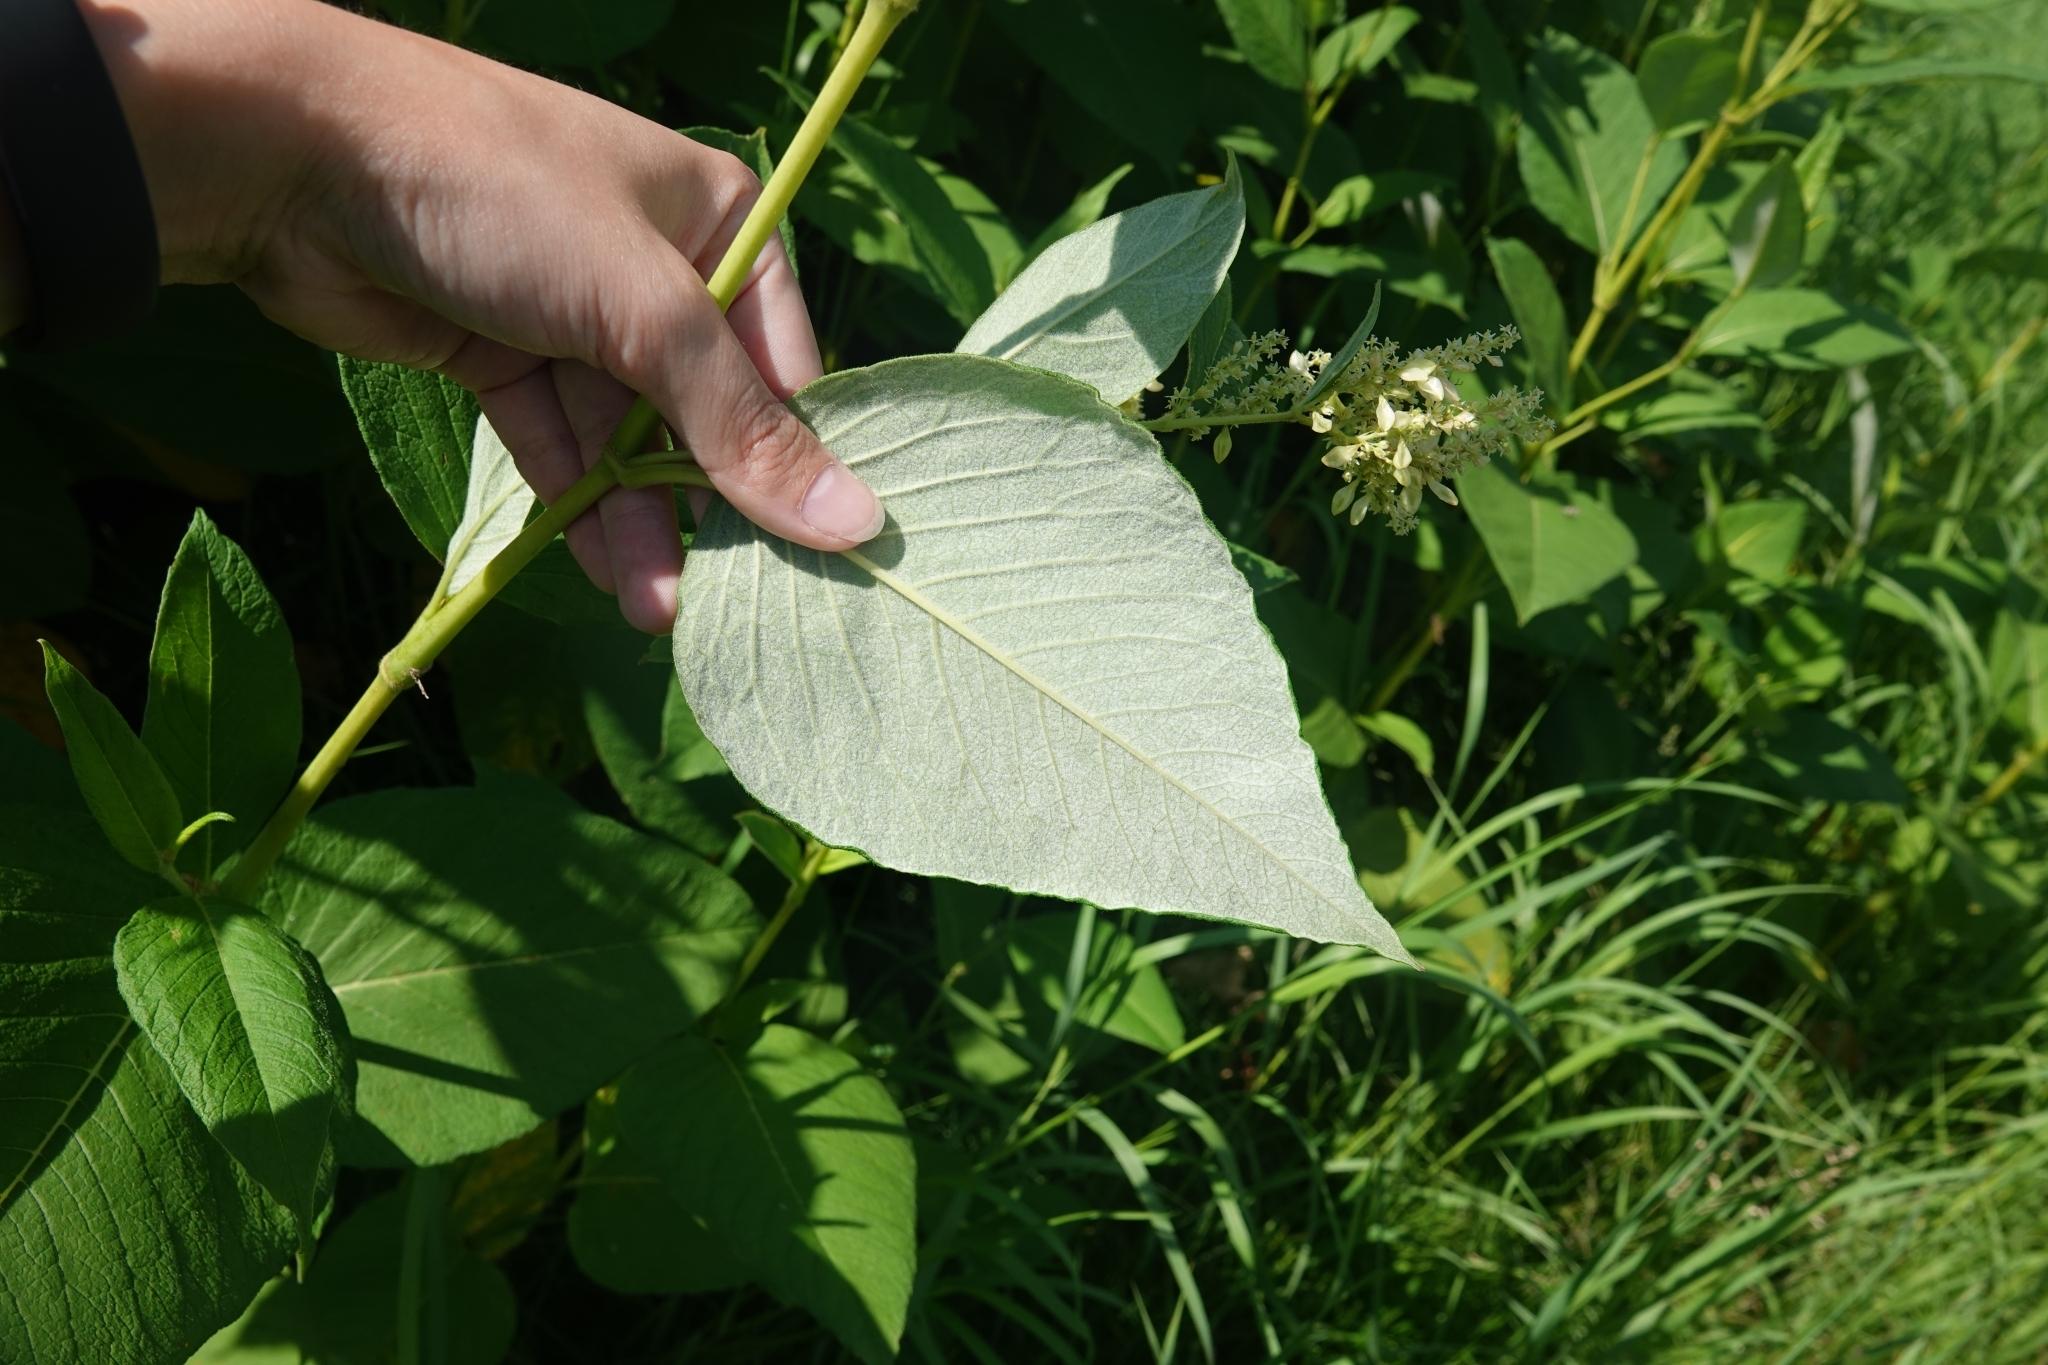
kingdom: Plantae
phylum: Tracheophyta
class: Magnoliopsida
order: Caryophyllales
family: Polygonaceae
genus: Koenigia
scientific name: Koenigia weyrichii
